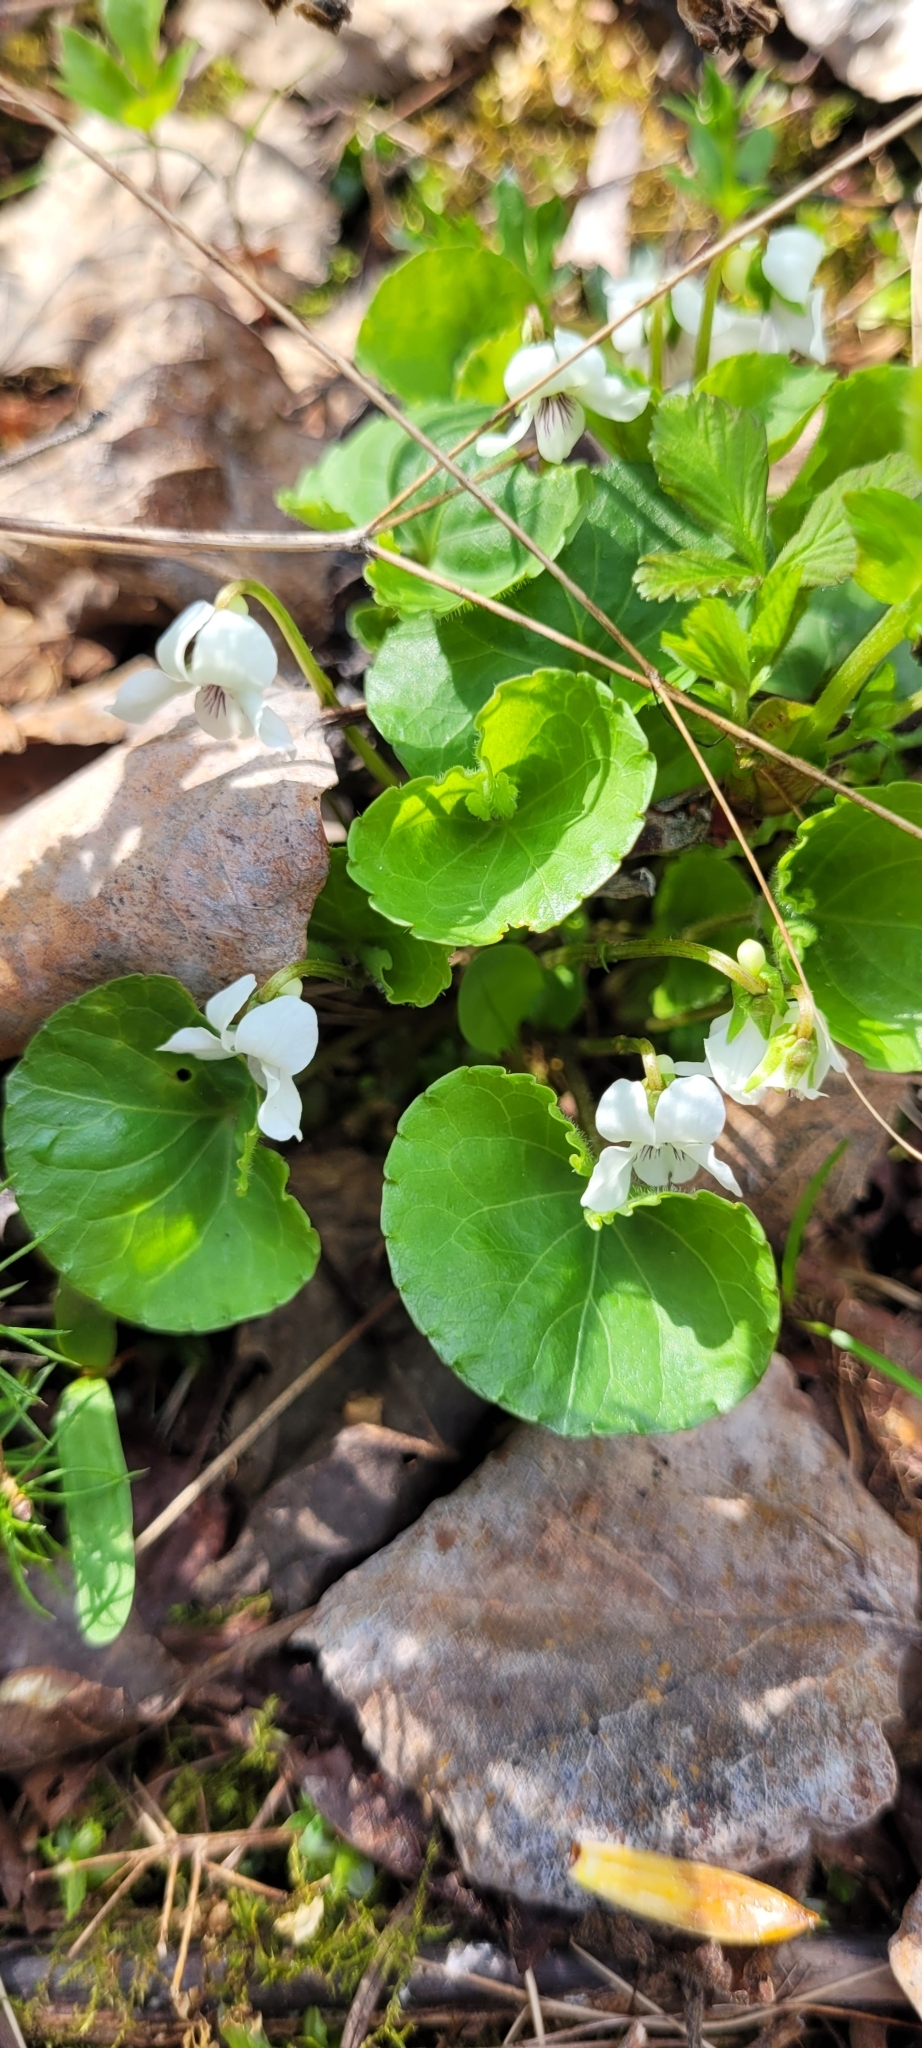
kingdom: Plantae
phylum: Tracheophyta
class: Magnoliopsida
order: Malpighiales
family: Violaceae
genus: Viola
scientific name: Viola renifolia
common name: Kidney-leaf violet
